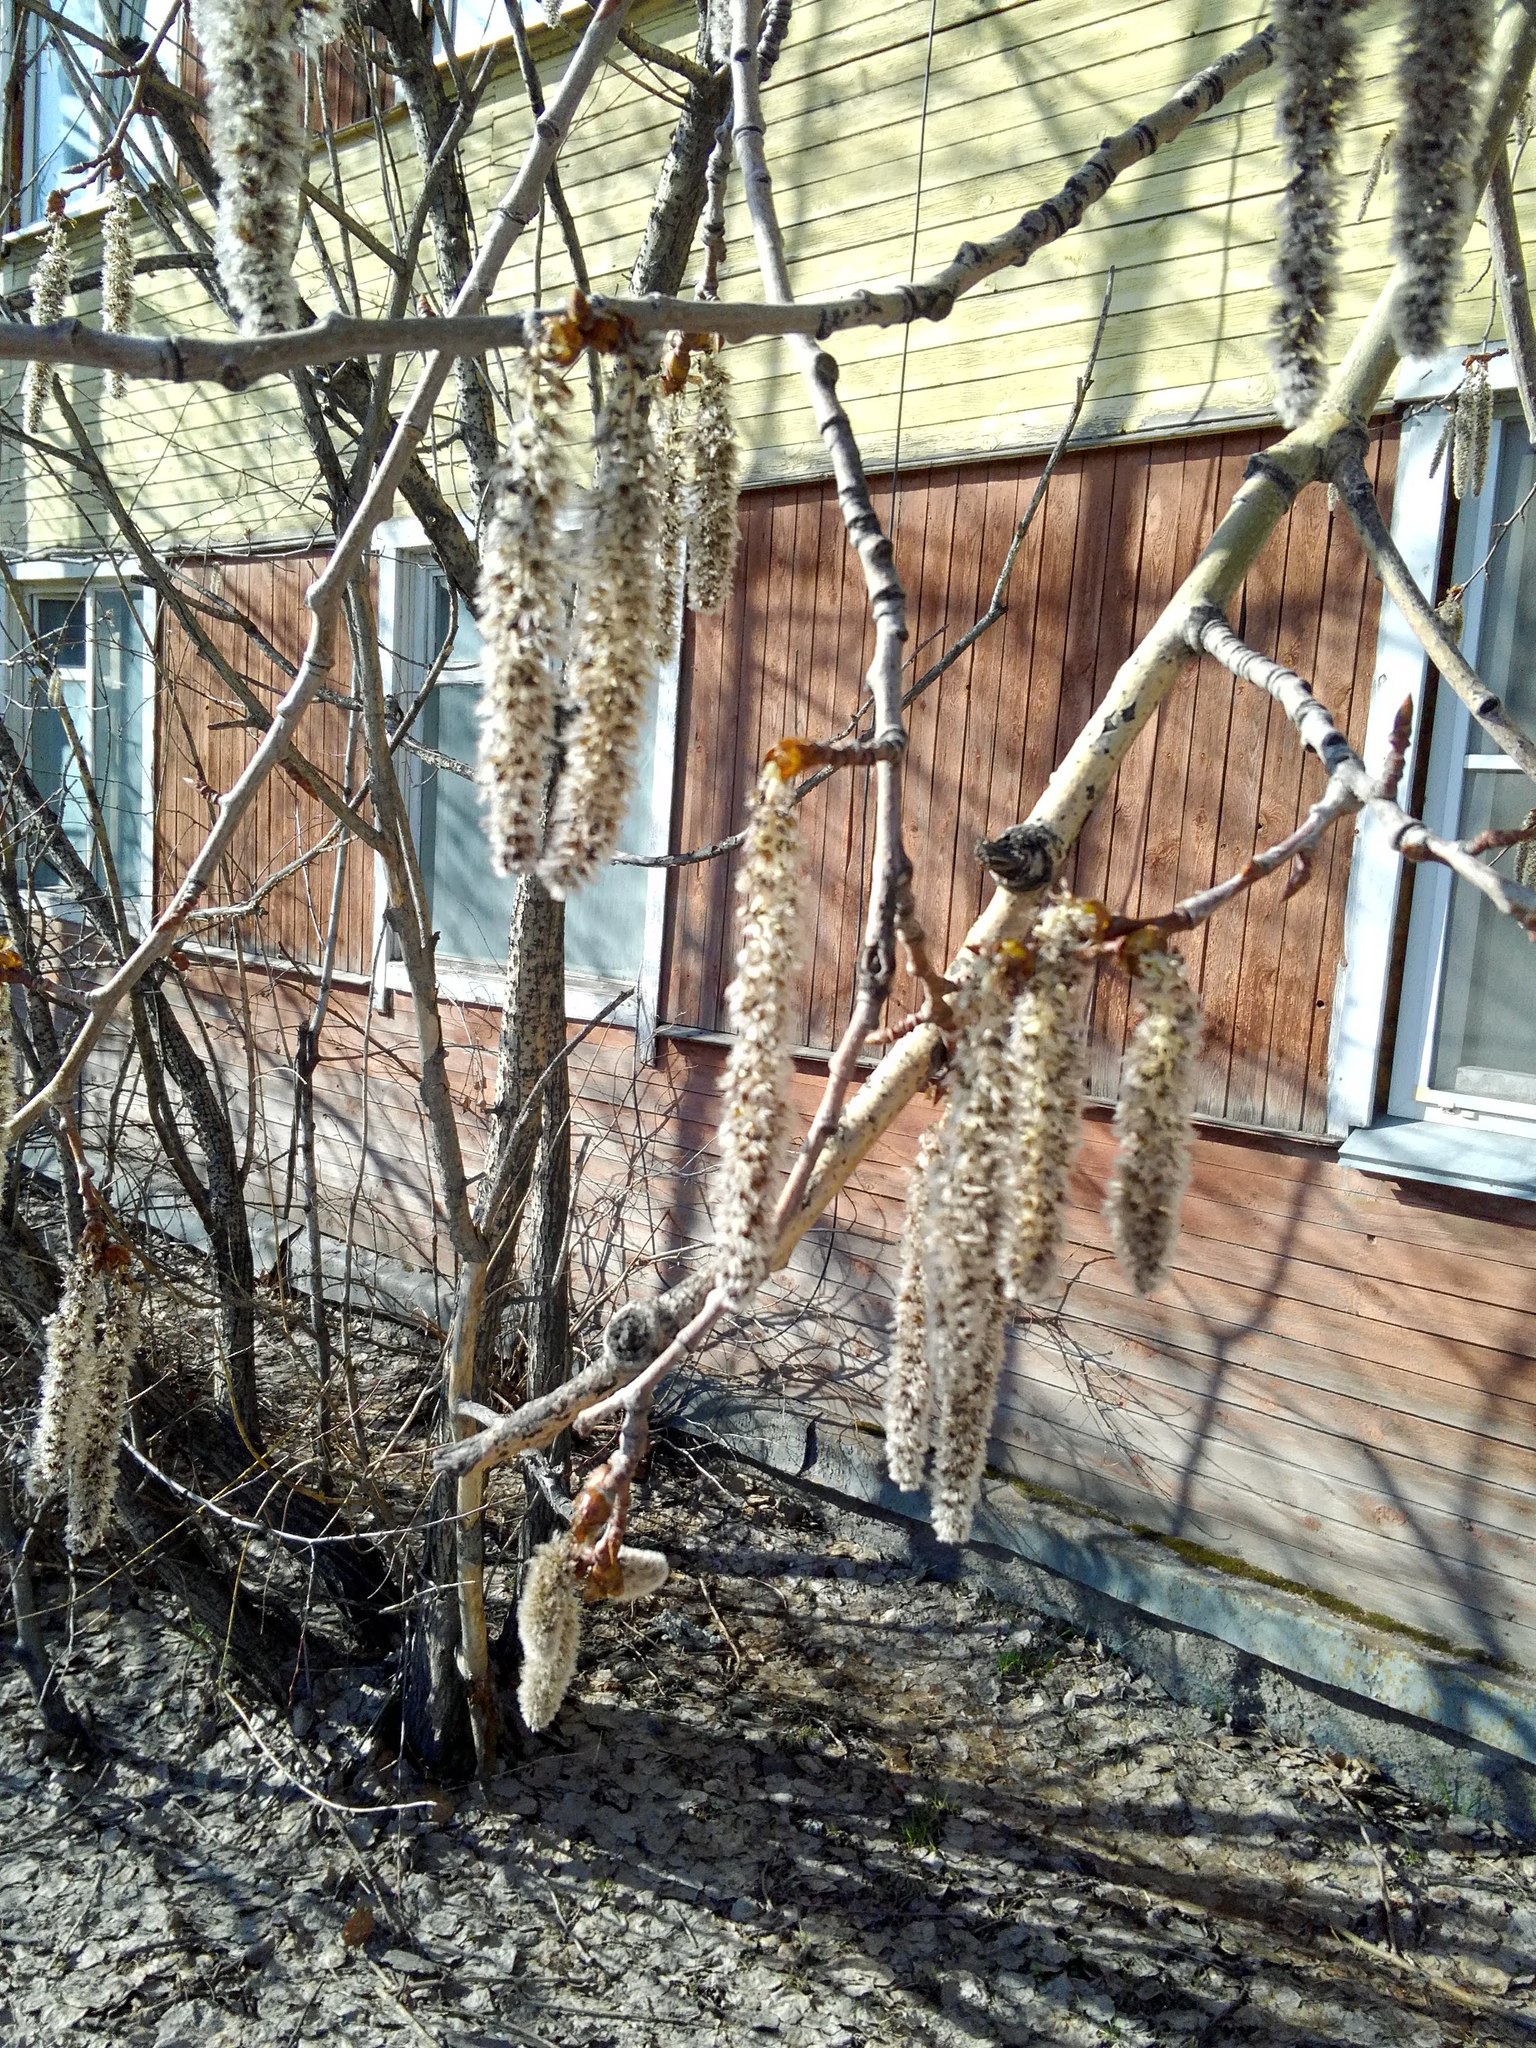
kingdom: Plantae
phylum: Tracheophyta
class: Magnoliopsida
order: Malpighiales
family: Salicaceae
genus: Populus
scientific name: Populus tremula
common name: European aspen
